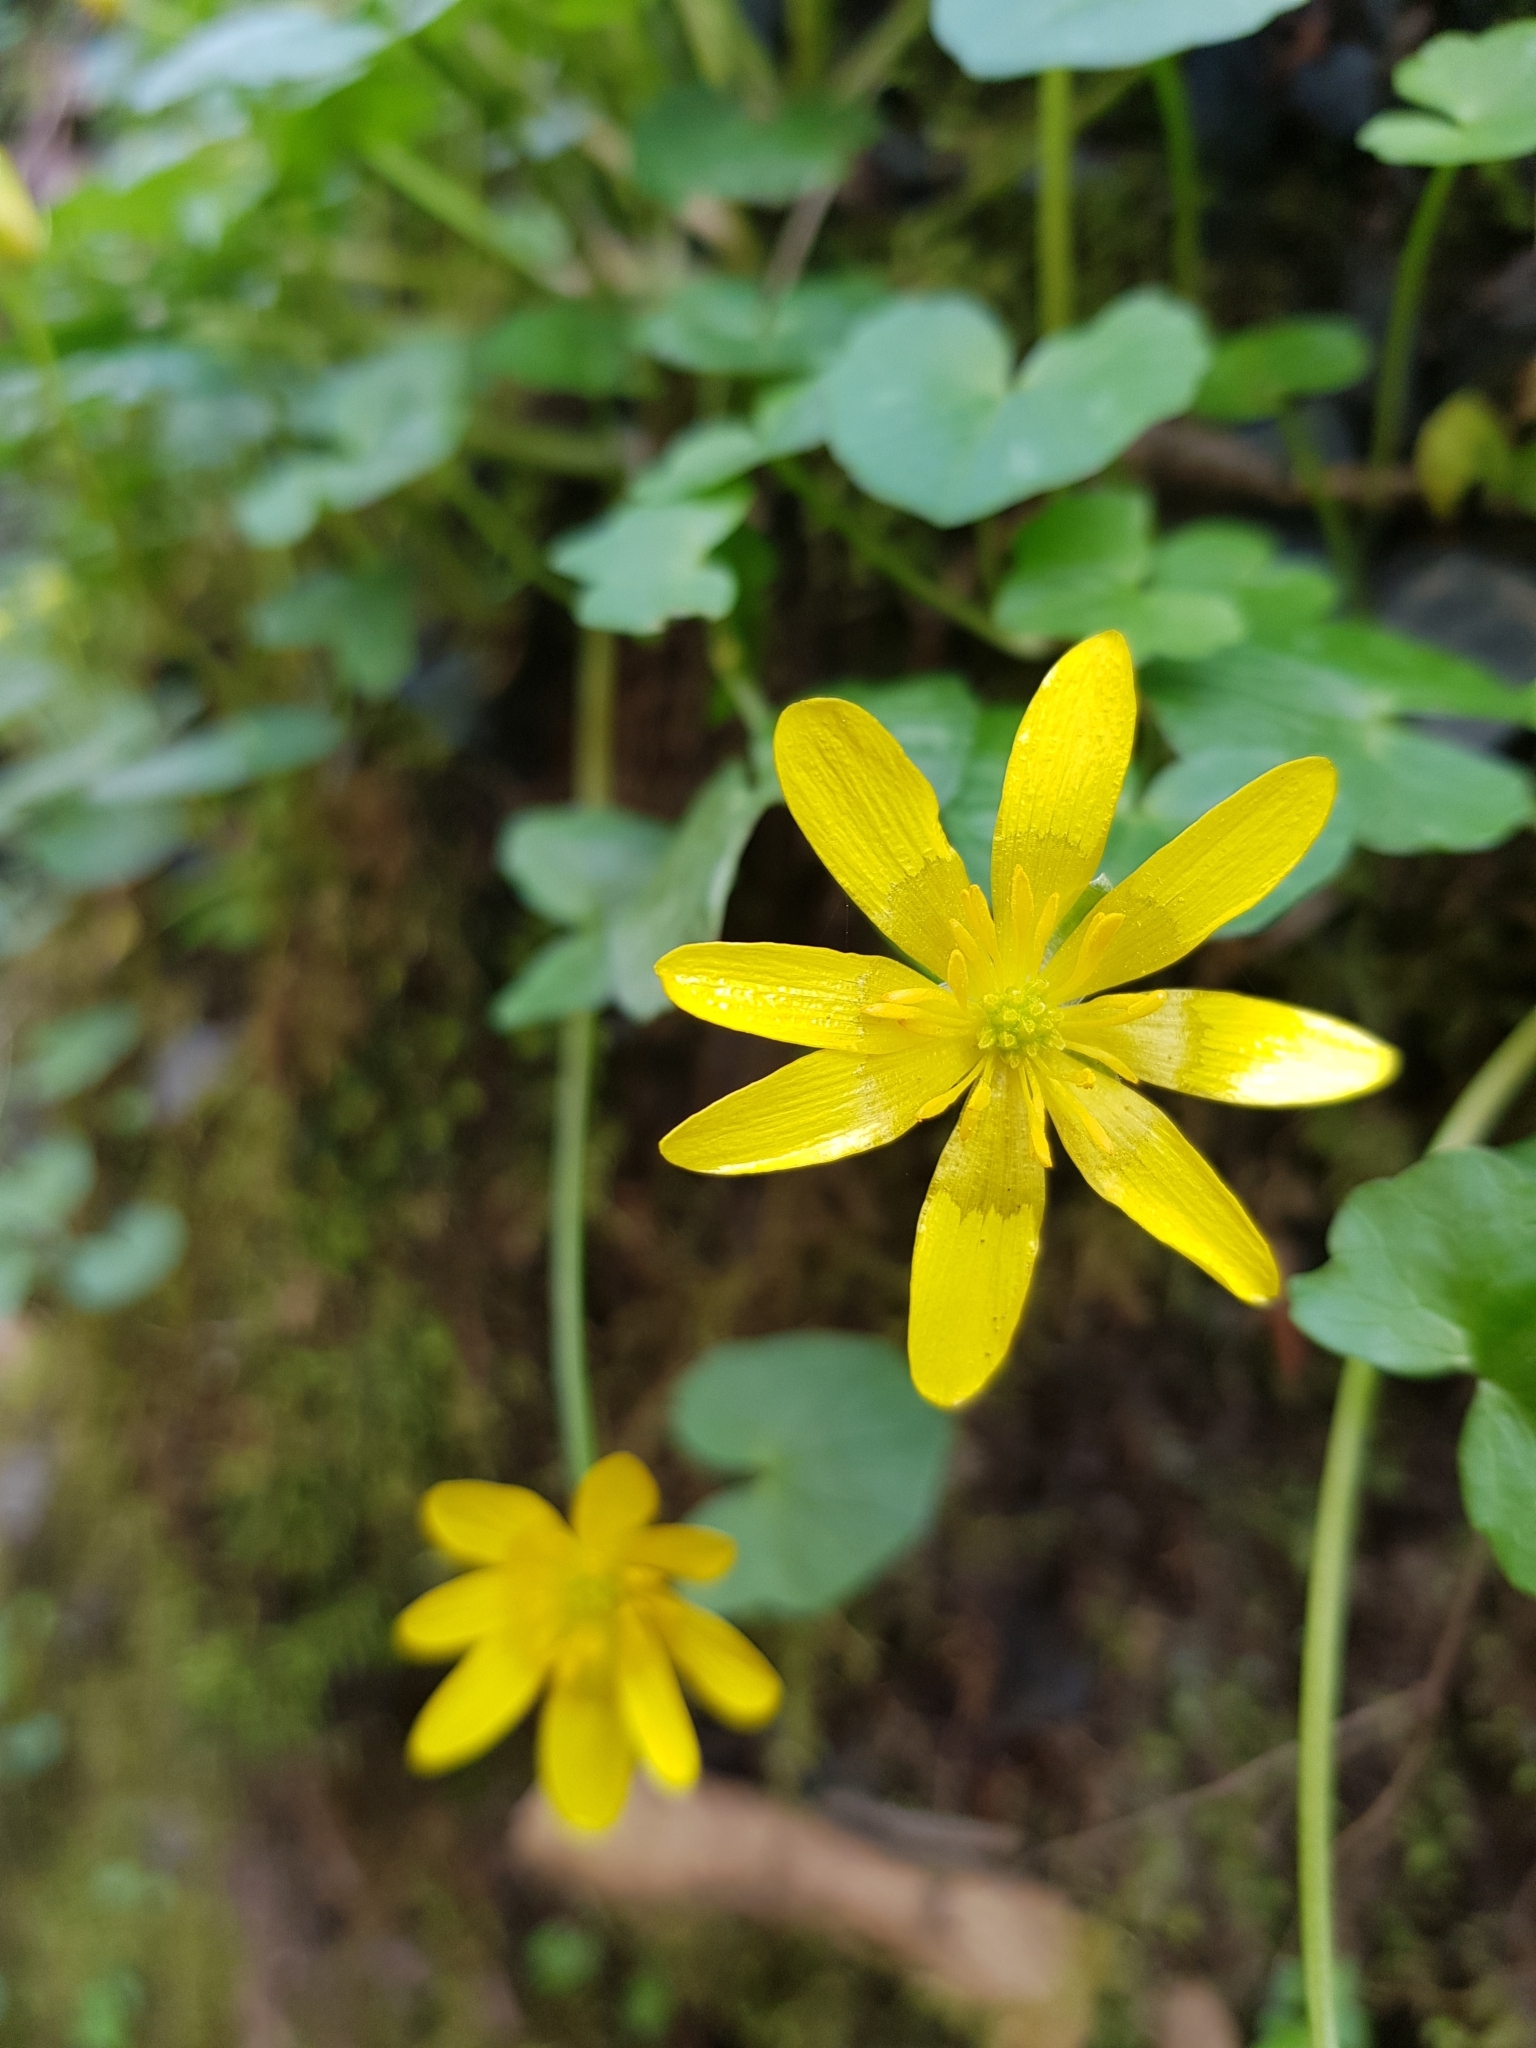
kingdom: Plantae
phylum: Tracheophyta
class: Magnoliopsida
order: Ranunculales
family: Ranunculaceae
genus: Ficaria
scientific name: Ficaria verna
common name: Lesser celandine
